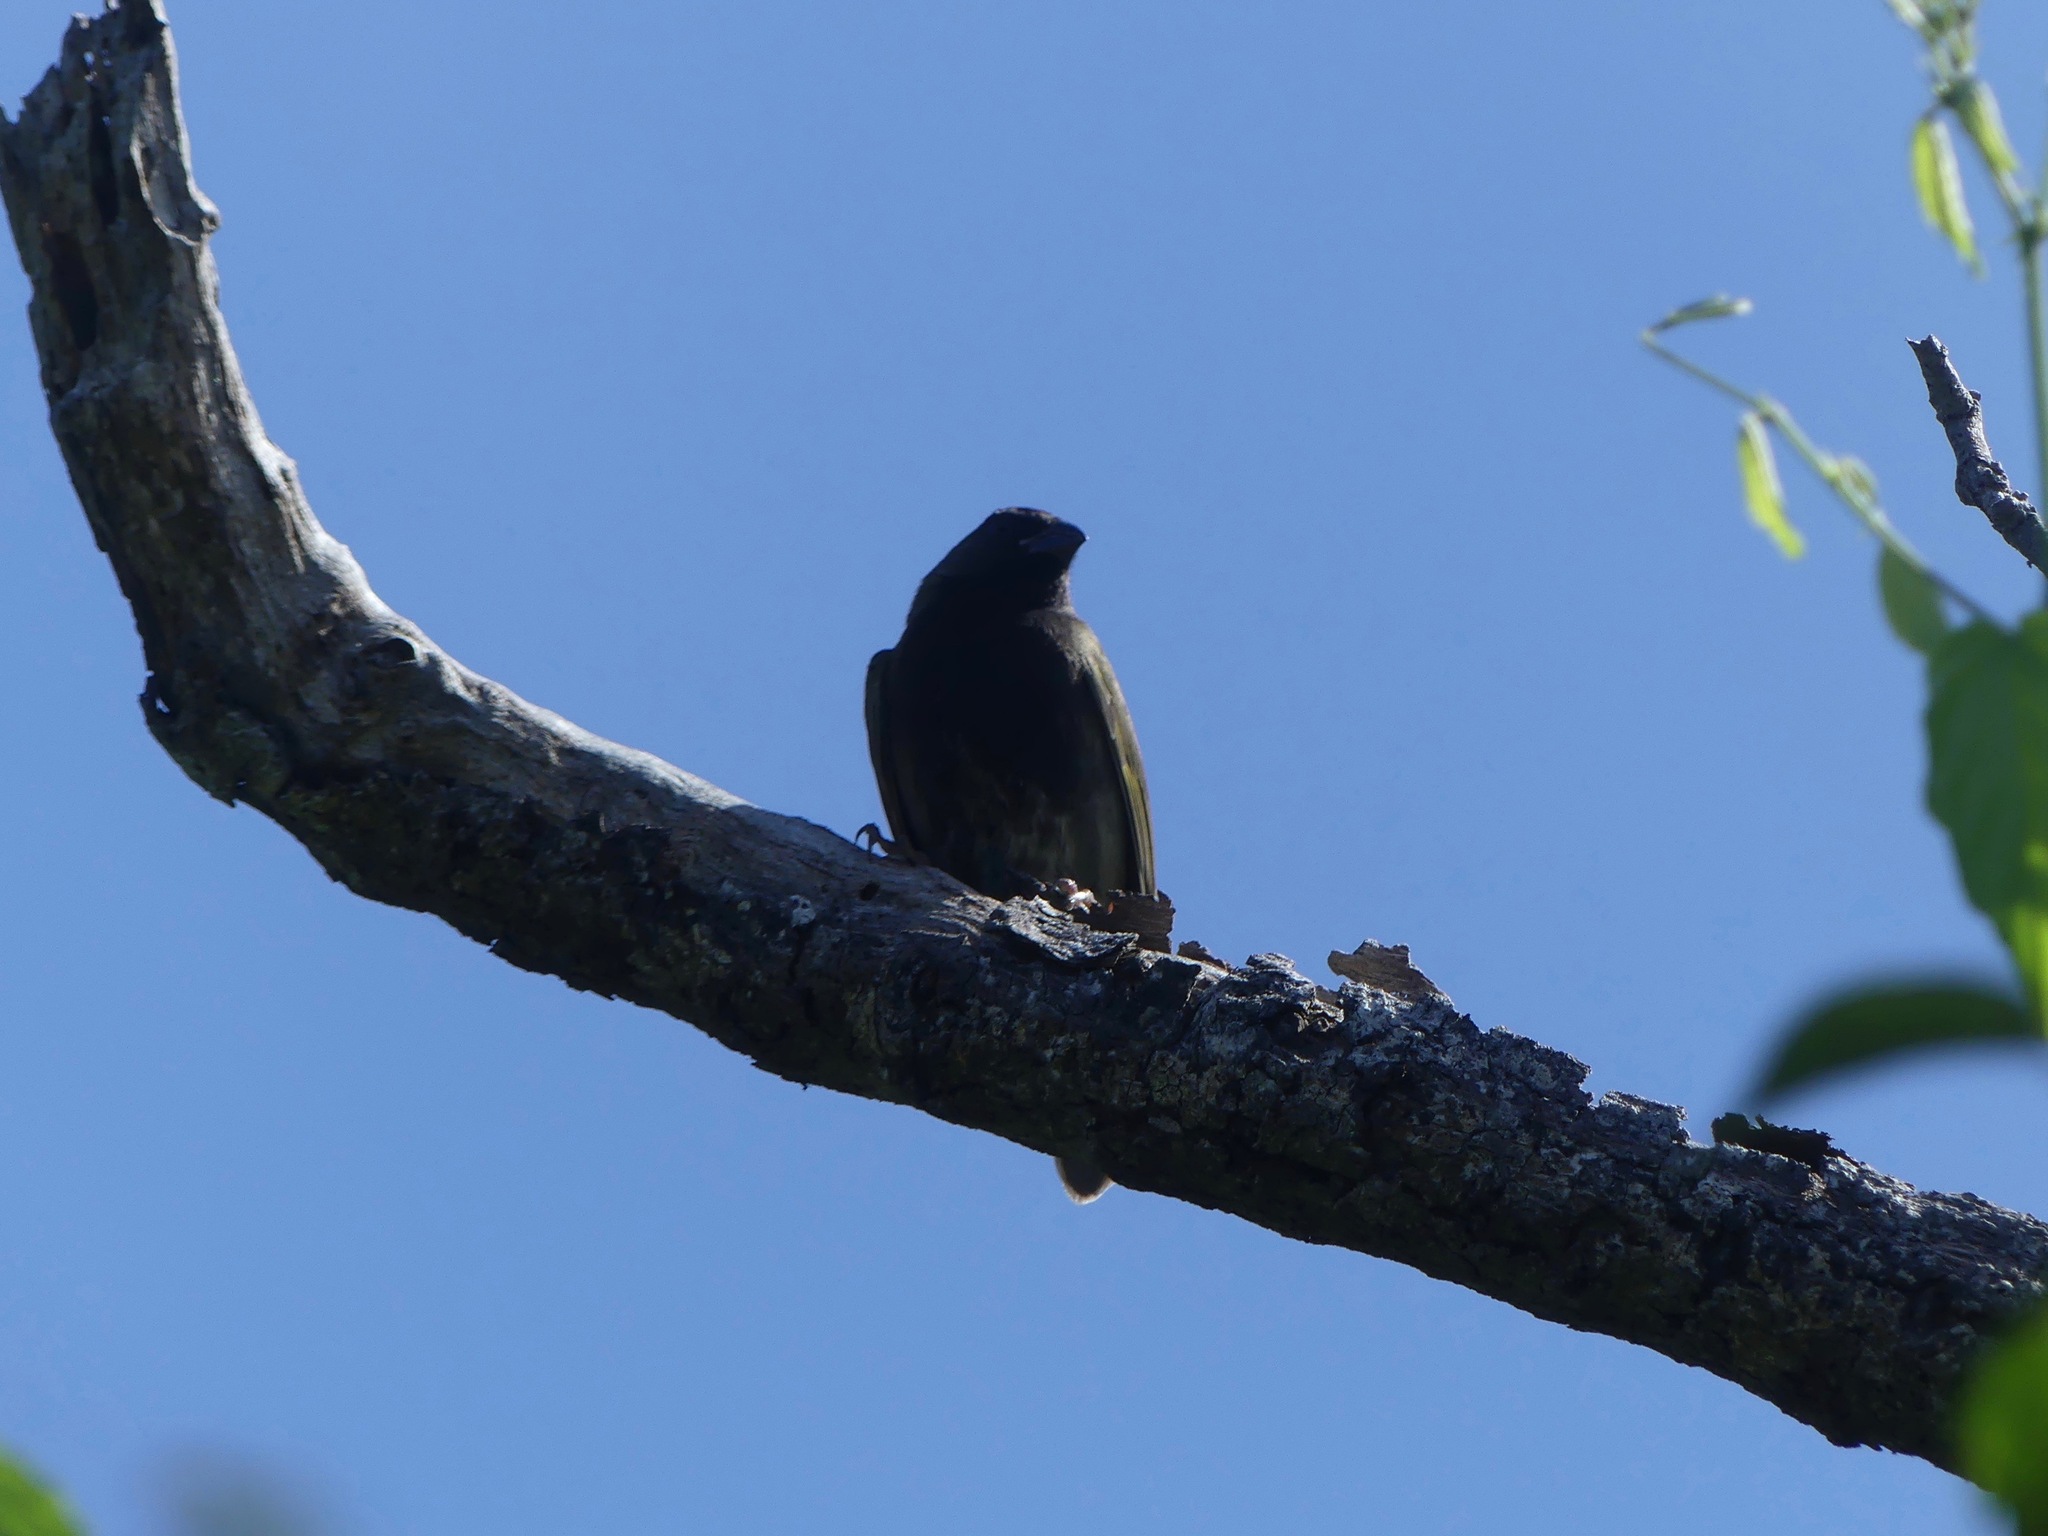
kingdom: Animalia
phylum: Chordata
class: Aves
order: Passeriformes
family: Thraupidae
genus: Melanospiza
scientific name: Melanospiza bicolor
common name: Black-faced grassquit
